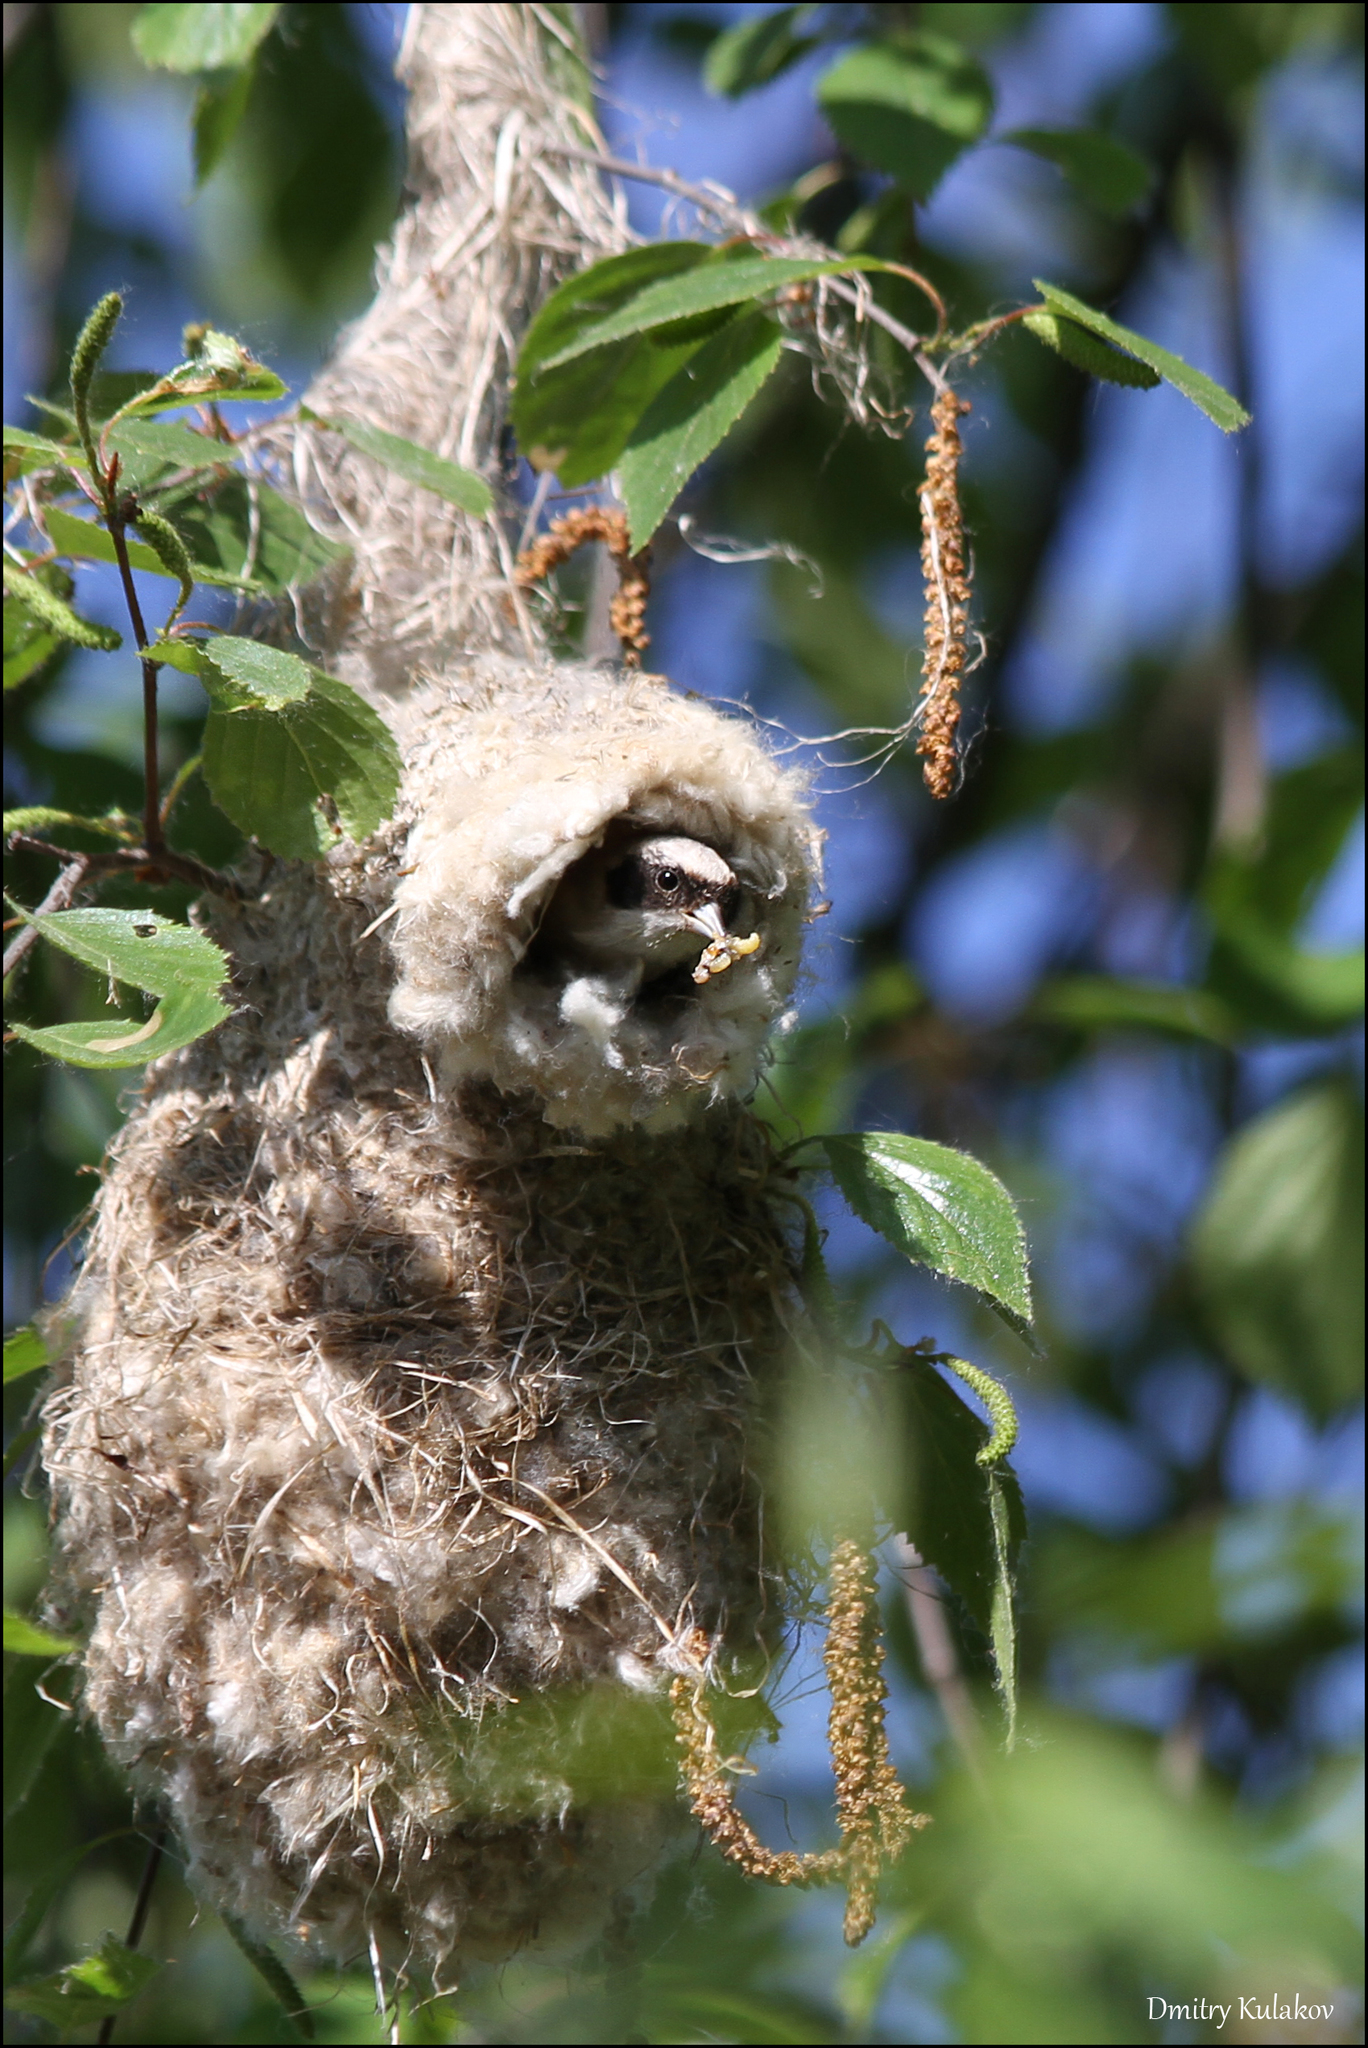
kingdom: Animalia
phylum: Chordata
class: Aves
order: Passeriformes
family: Remizidae
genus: Remiz
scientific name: Remiz pendulinus
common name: Eurasian penduline tit
